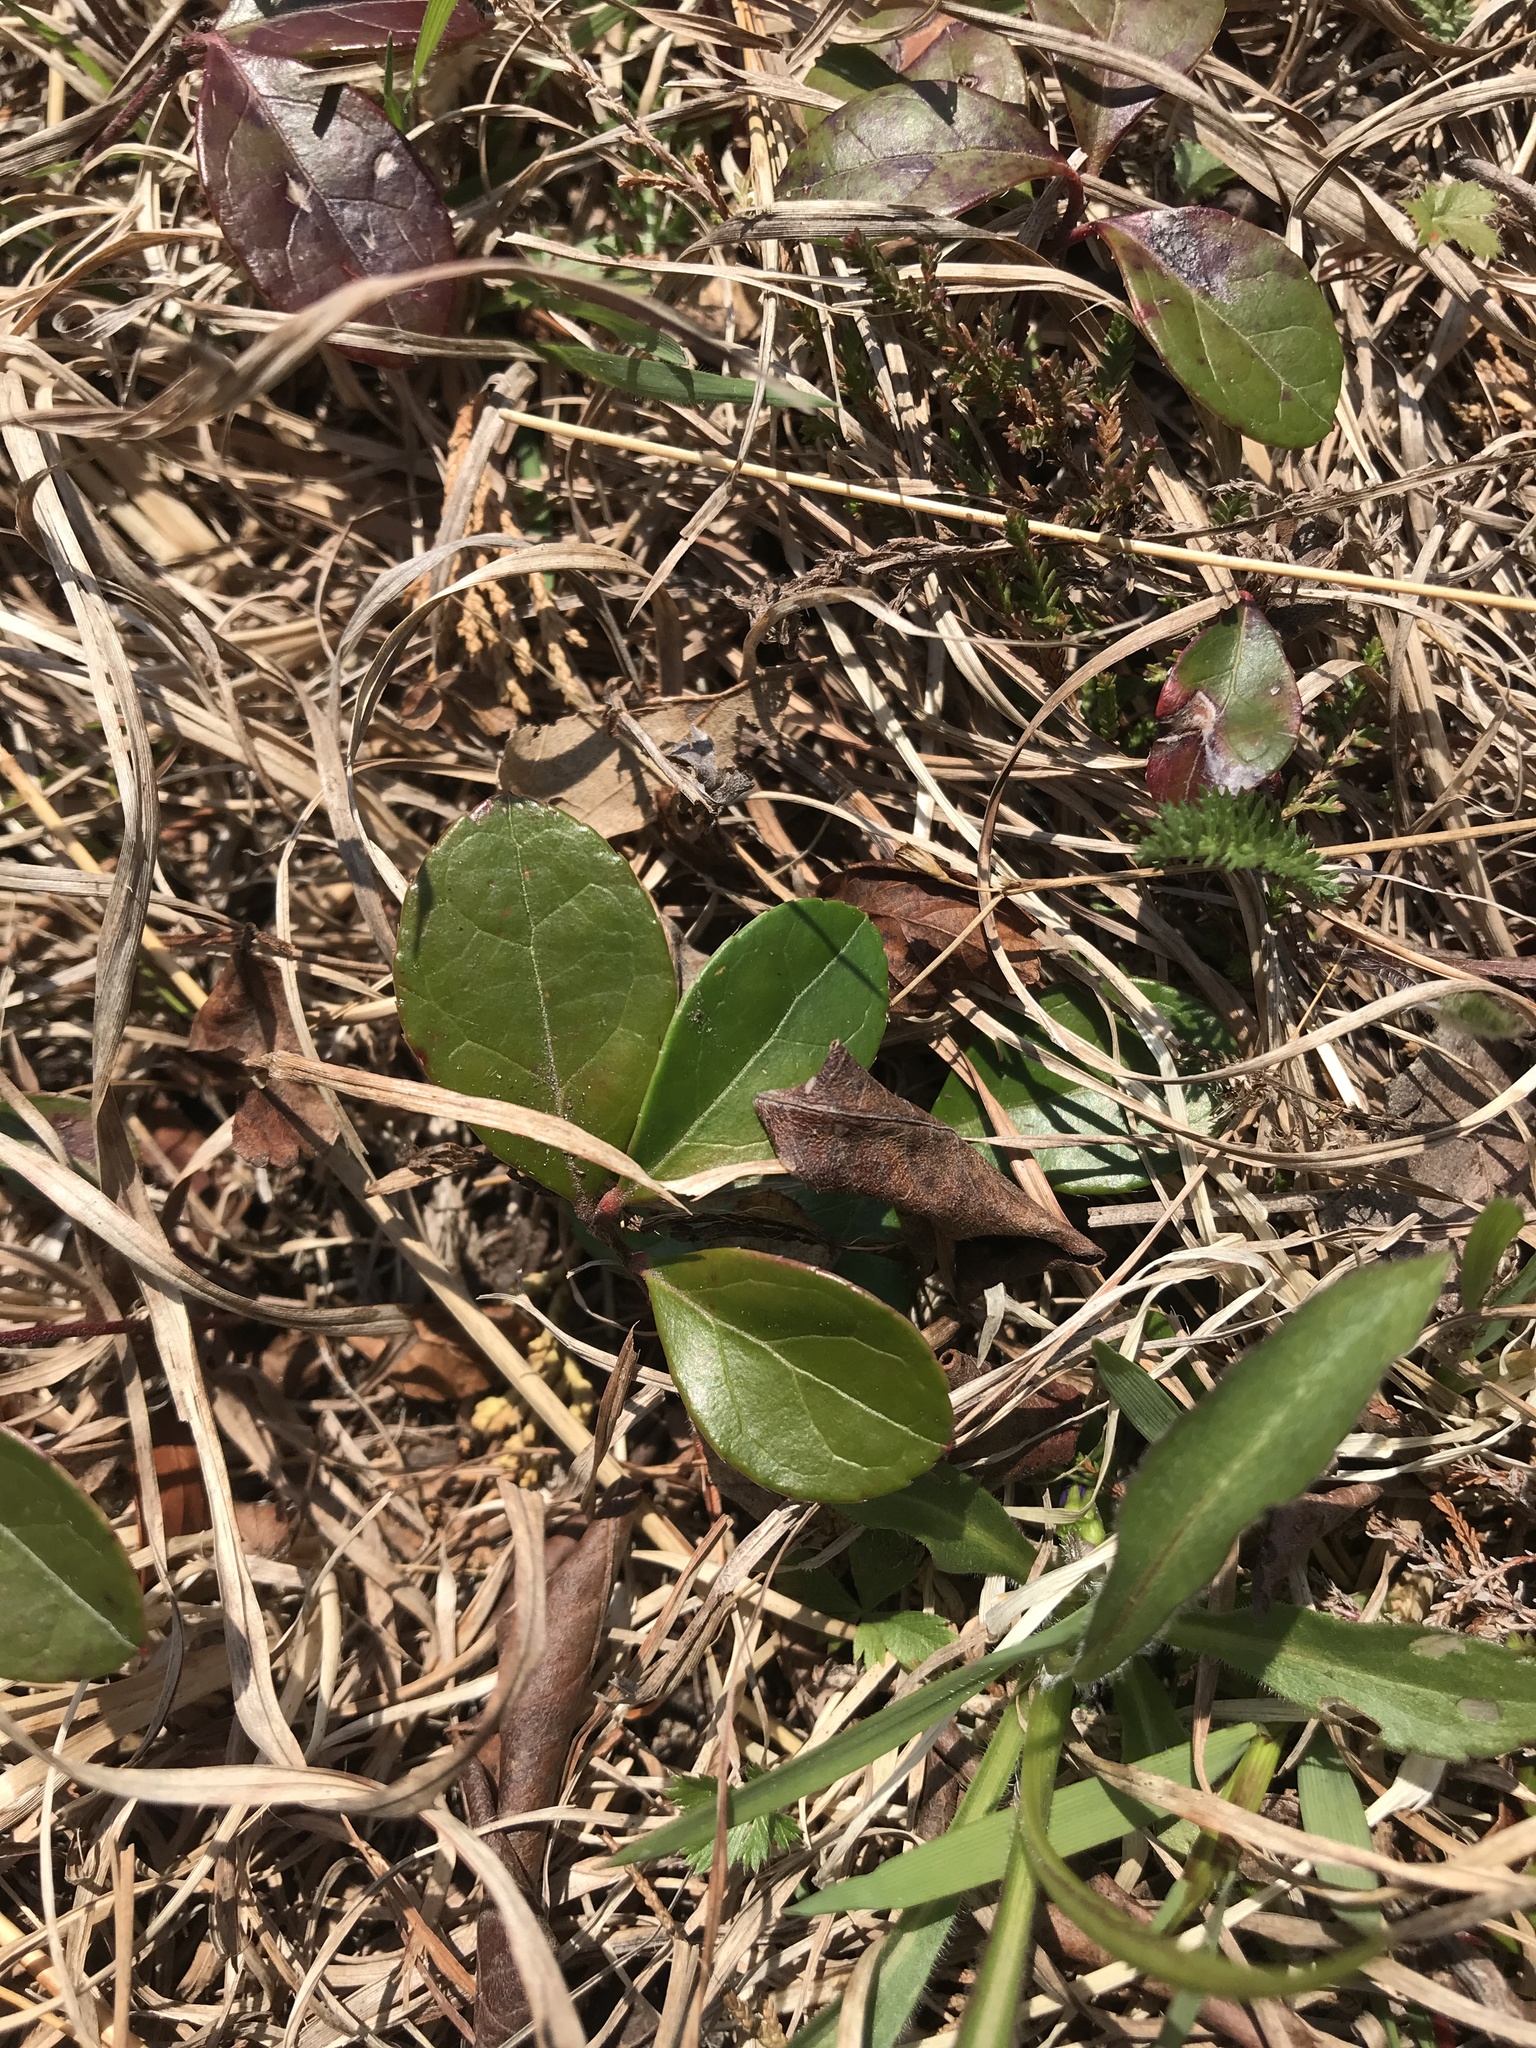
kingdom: Plantae
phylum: Tracheophyta
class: Magnoliopsida
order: Ericales
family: Ericaceae
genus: Gaultheria
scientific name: Gaultheria procumbens
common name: Checkerberry
